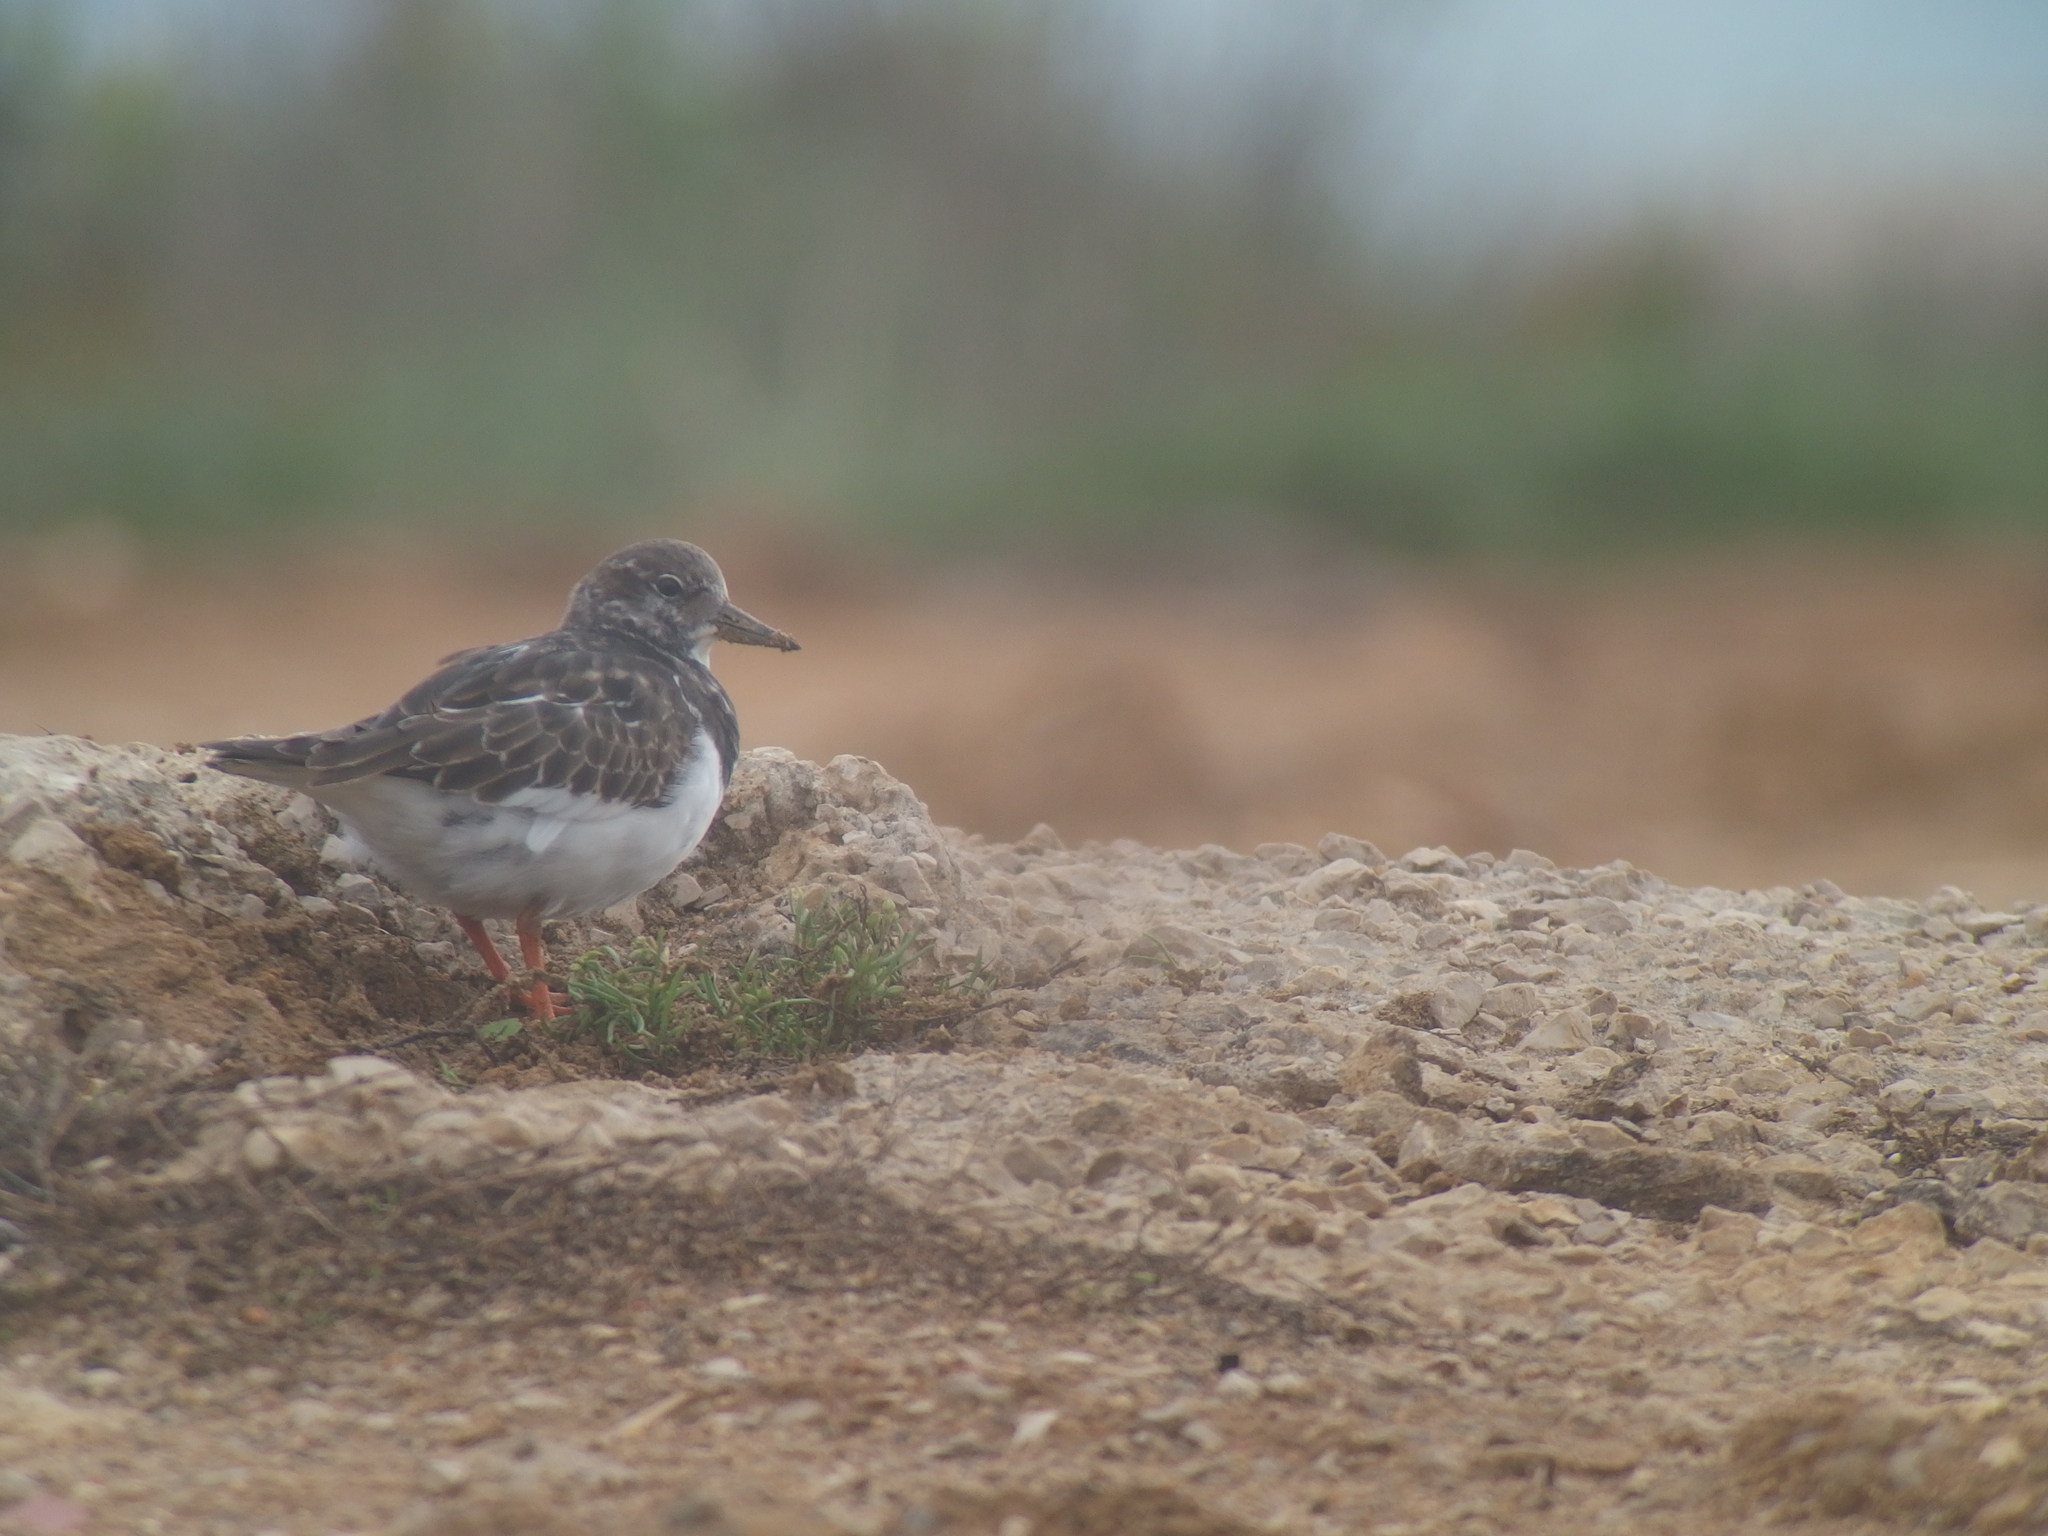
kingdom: Animalia
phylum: Chordata
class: Aves
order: Charadriiformes
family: Scolopacidae
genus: Arenaria
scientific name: Arenaria interpres
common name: Ruddy turnstone
